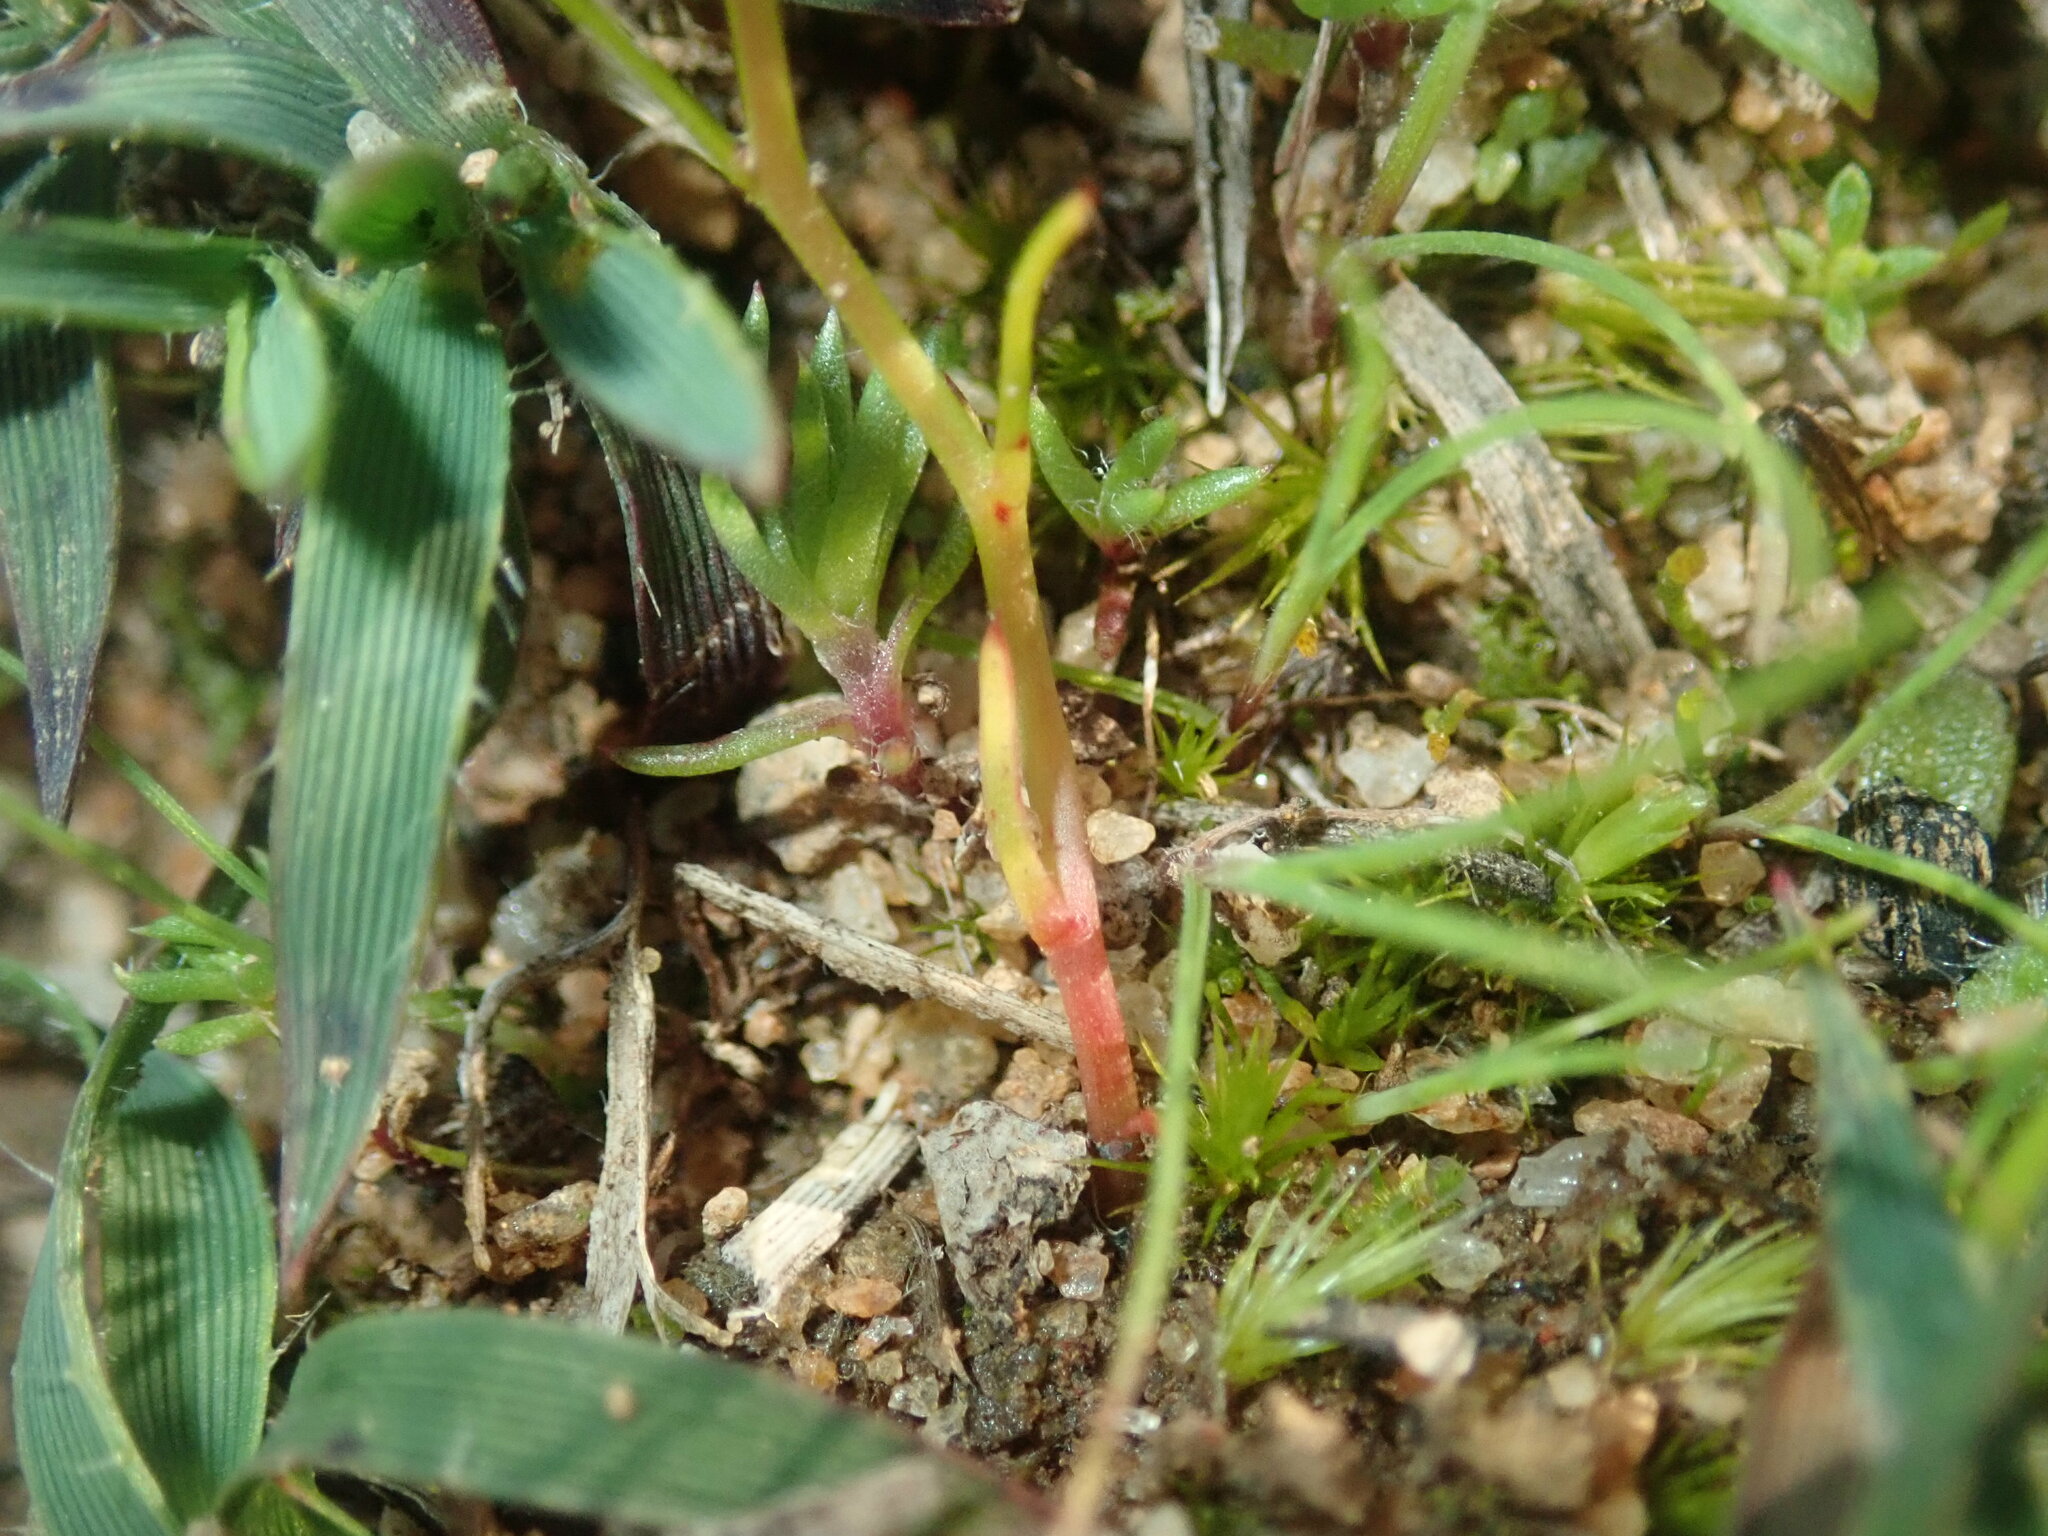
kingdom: Plantae
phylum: Tracheophyta
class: Magnoliopsida
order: Caryophyllales
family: Droseraceae
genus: Drosera
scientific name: Drosera menziesii
